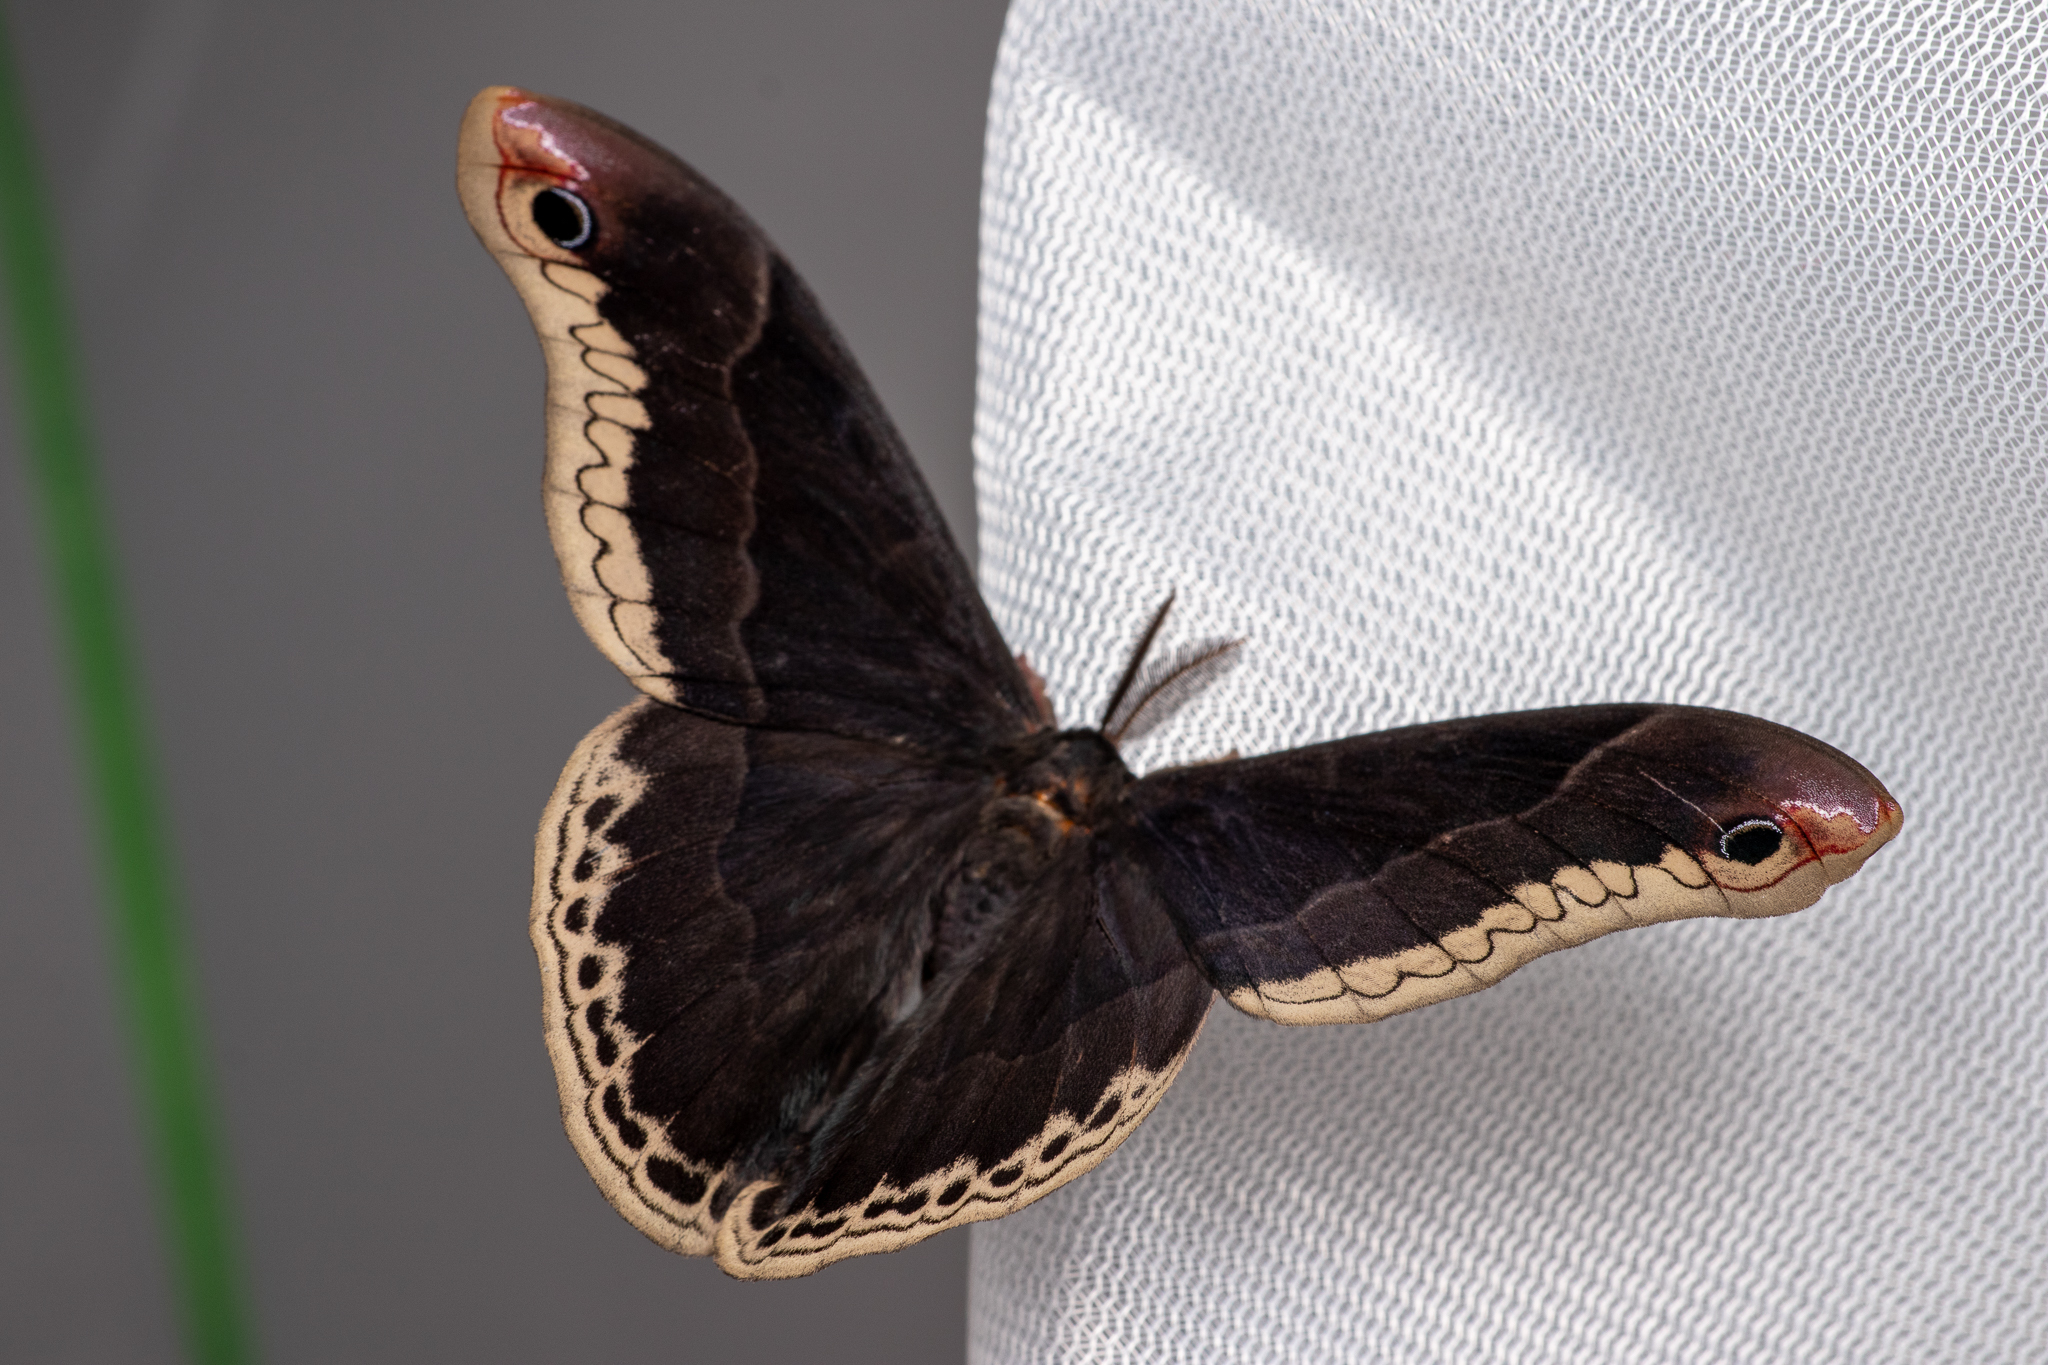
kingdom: Animalia
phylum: Arthropoda
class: Insecta
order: Lepidoptera
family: Saturniidae
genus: Callosamia
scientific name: Callosamia promethea
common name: Promethea silkmoth
